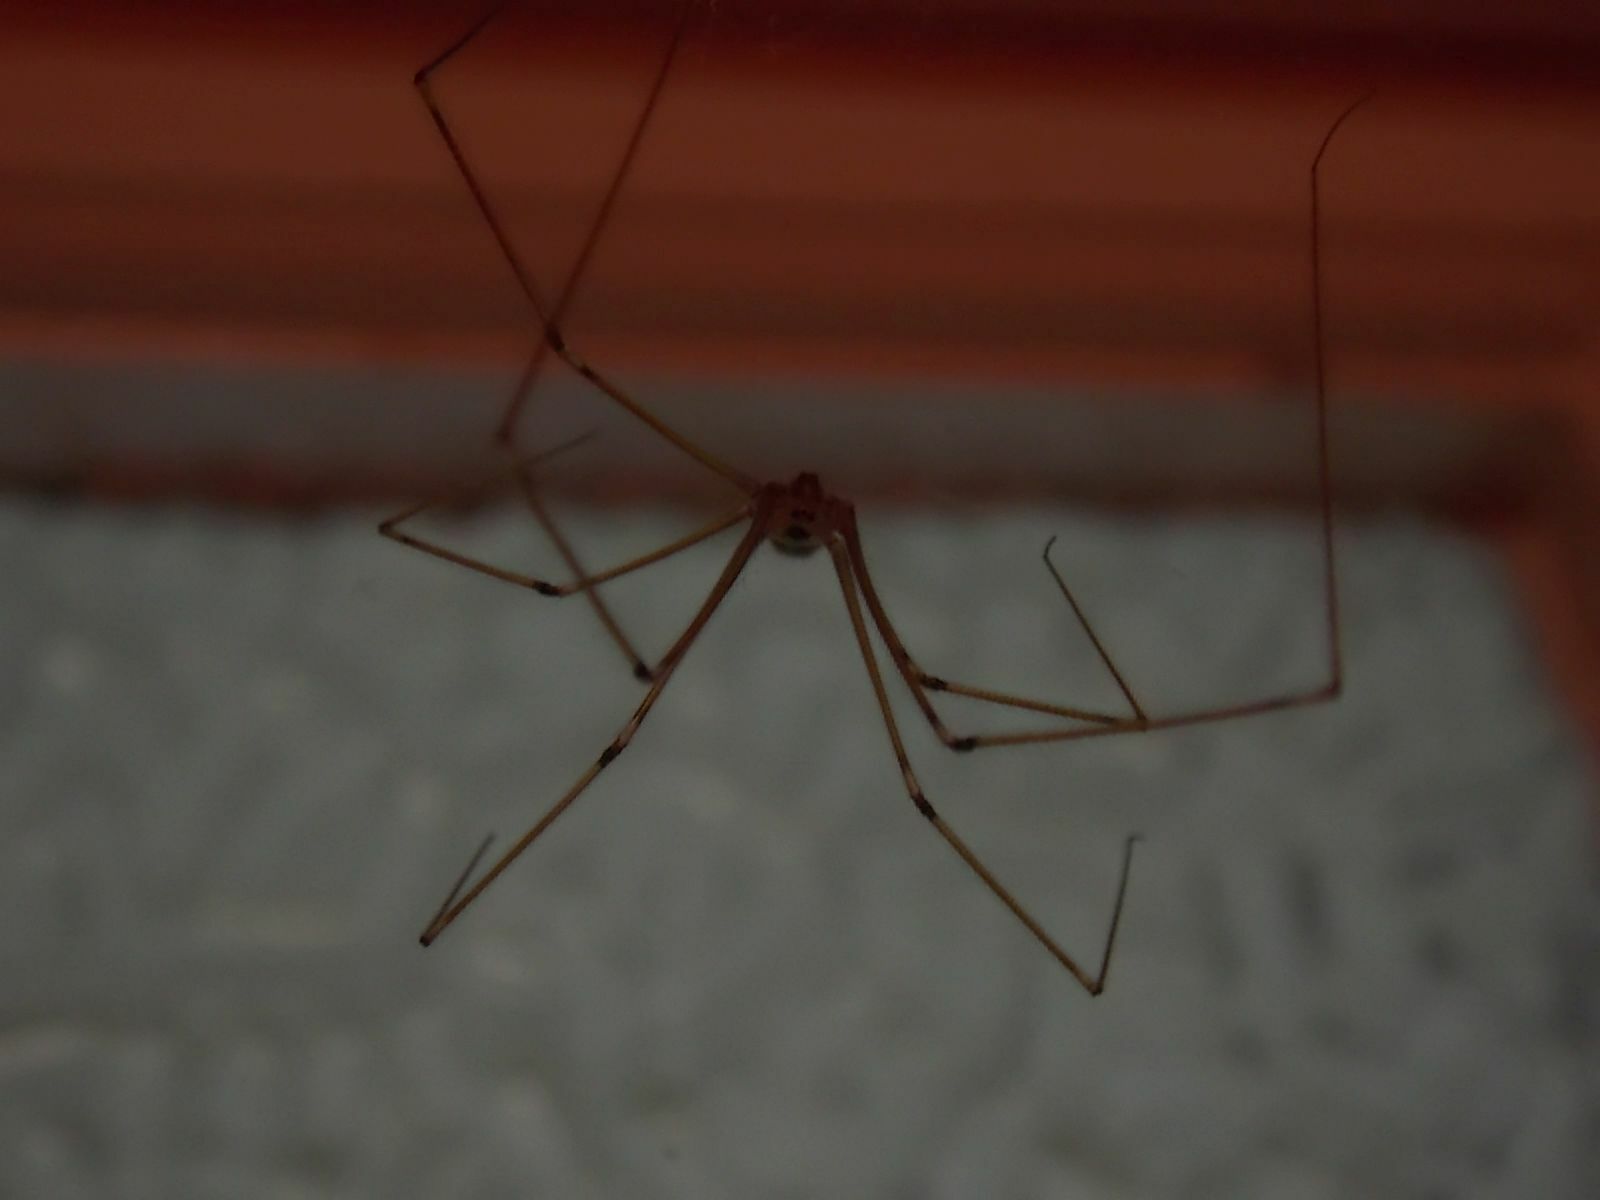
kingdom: Animalia
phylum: Arthropoda
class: Arachnida
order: Araneae
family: Pholcidae
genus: Pholcus
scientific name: Pholcus phalangioides
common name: Longbodied cellar spider
